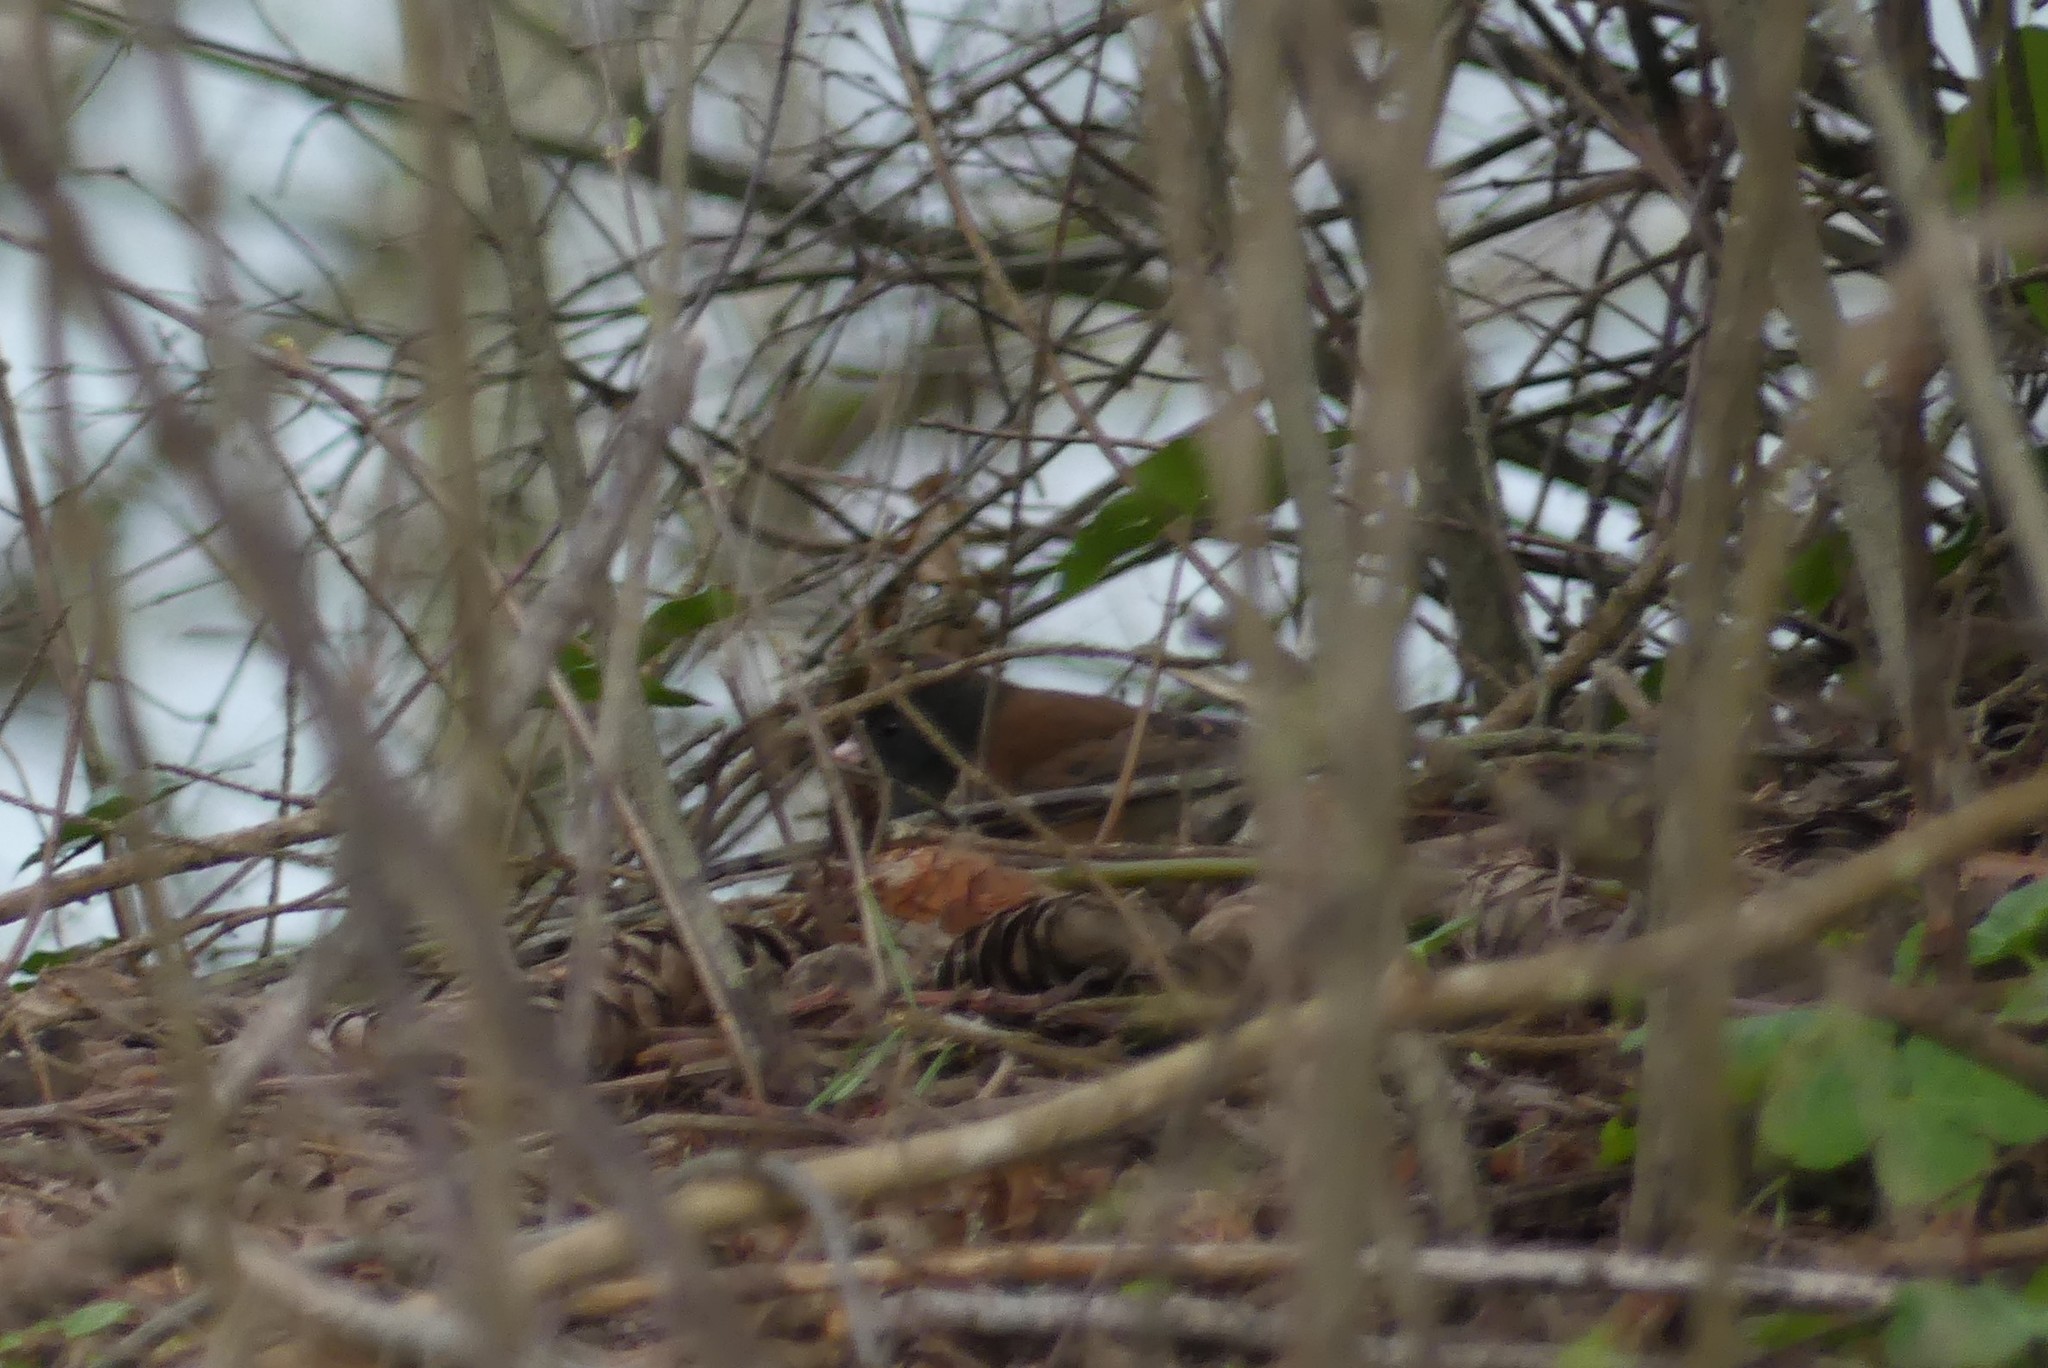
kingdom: Animalia
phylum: Chordata
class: Aves
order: Passeriformes
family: Passerellidae
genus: Junco
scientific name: Junco hyemalis
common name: Dark-eyed junco
